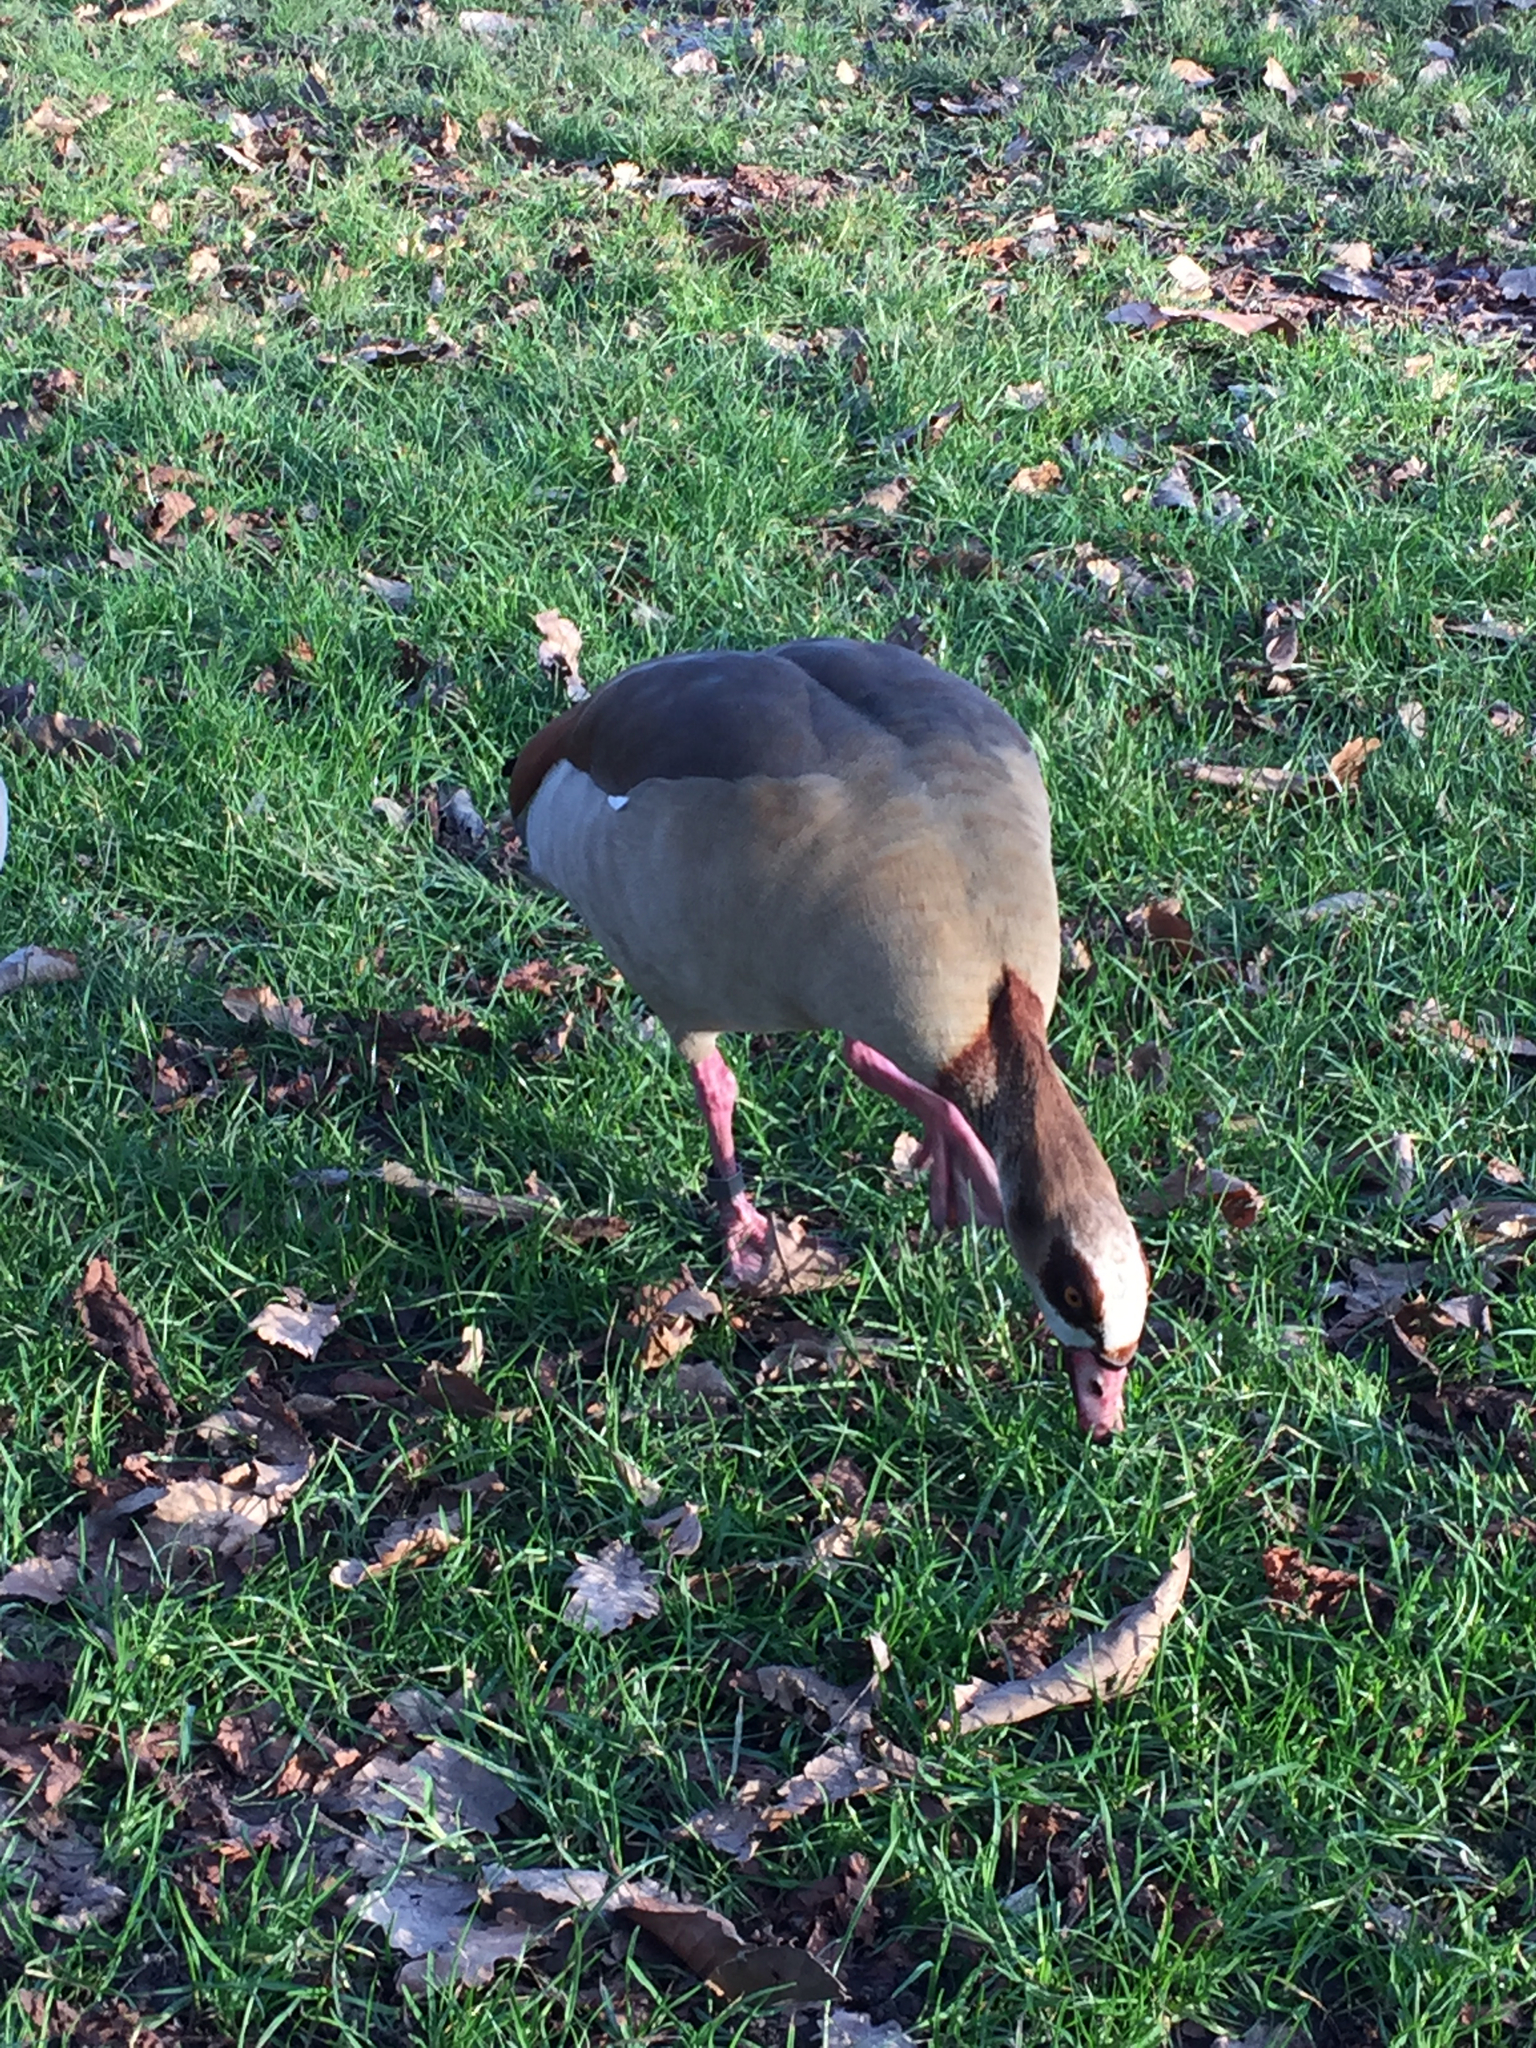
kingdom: Animalia
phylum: Chordata
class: Aves
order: Anseriformes
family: Anatidae
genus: Alopochen
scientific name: Alopochen aegyptiaca
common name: Egyptian goose
